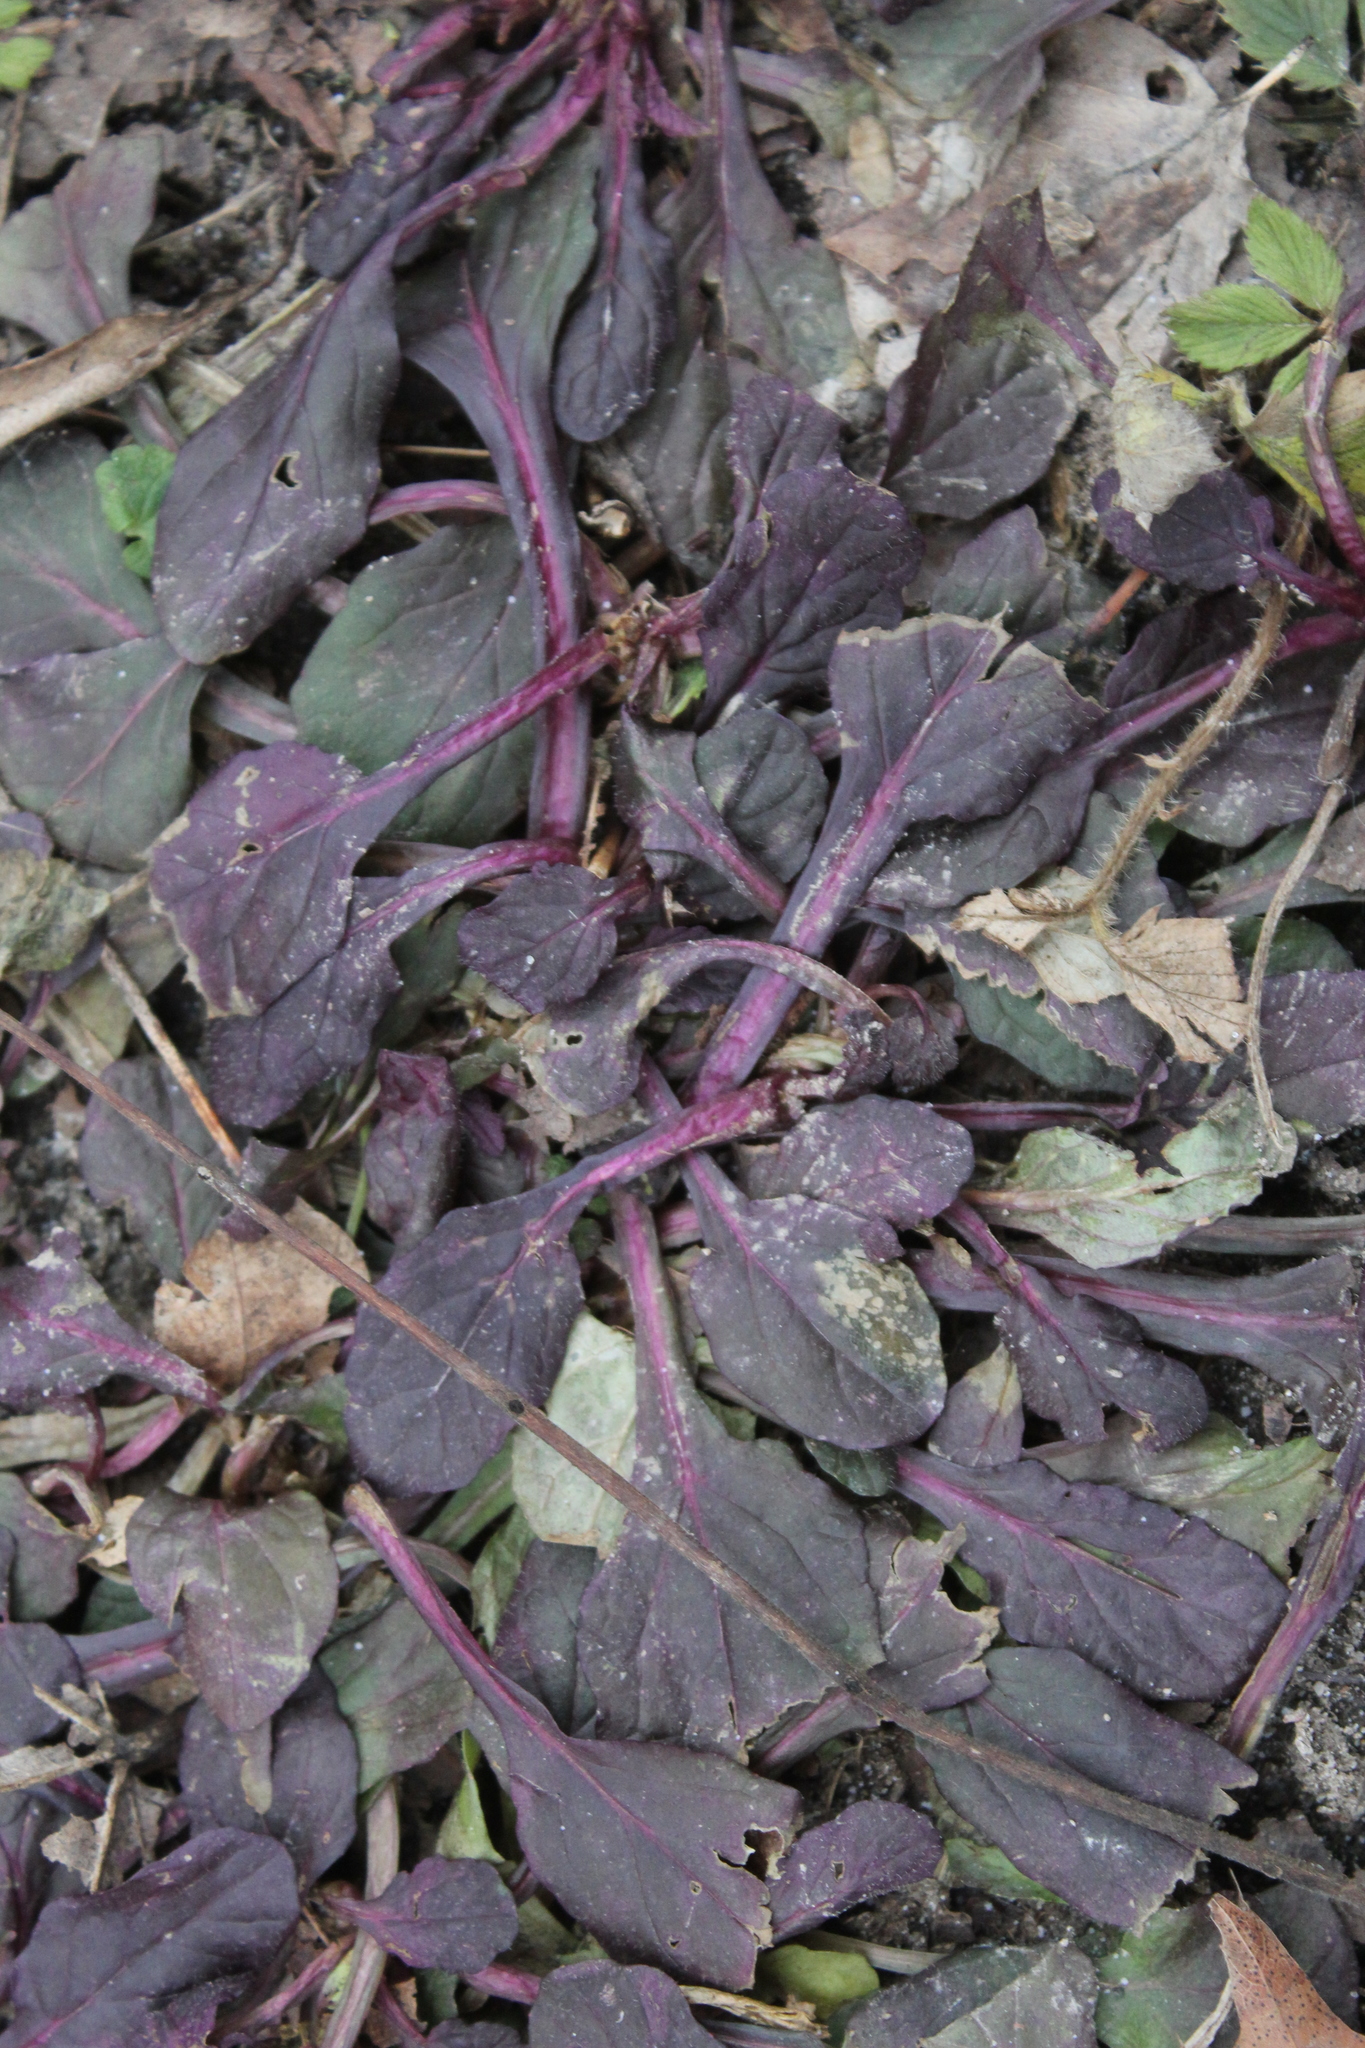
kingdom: Plantae
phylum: Tracheophyta
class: Magnoliopsida
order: Lamiales
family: Lamiaceae
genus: Ajuga
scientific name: Ajuga reptans
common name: Bugle
